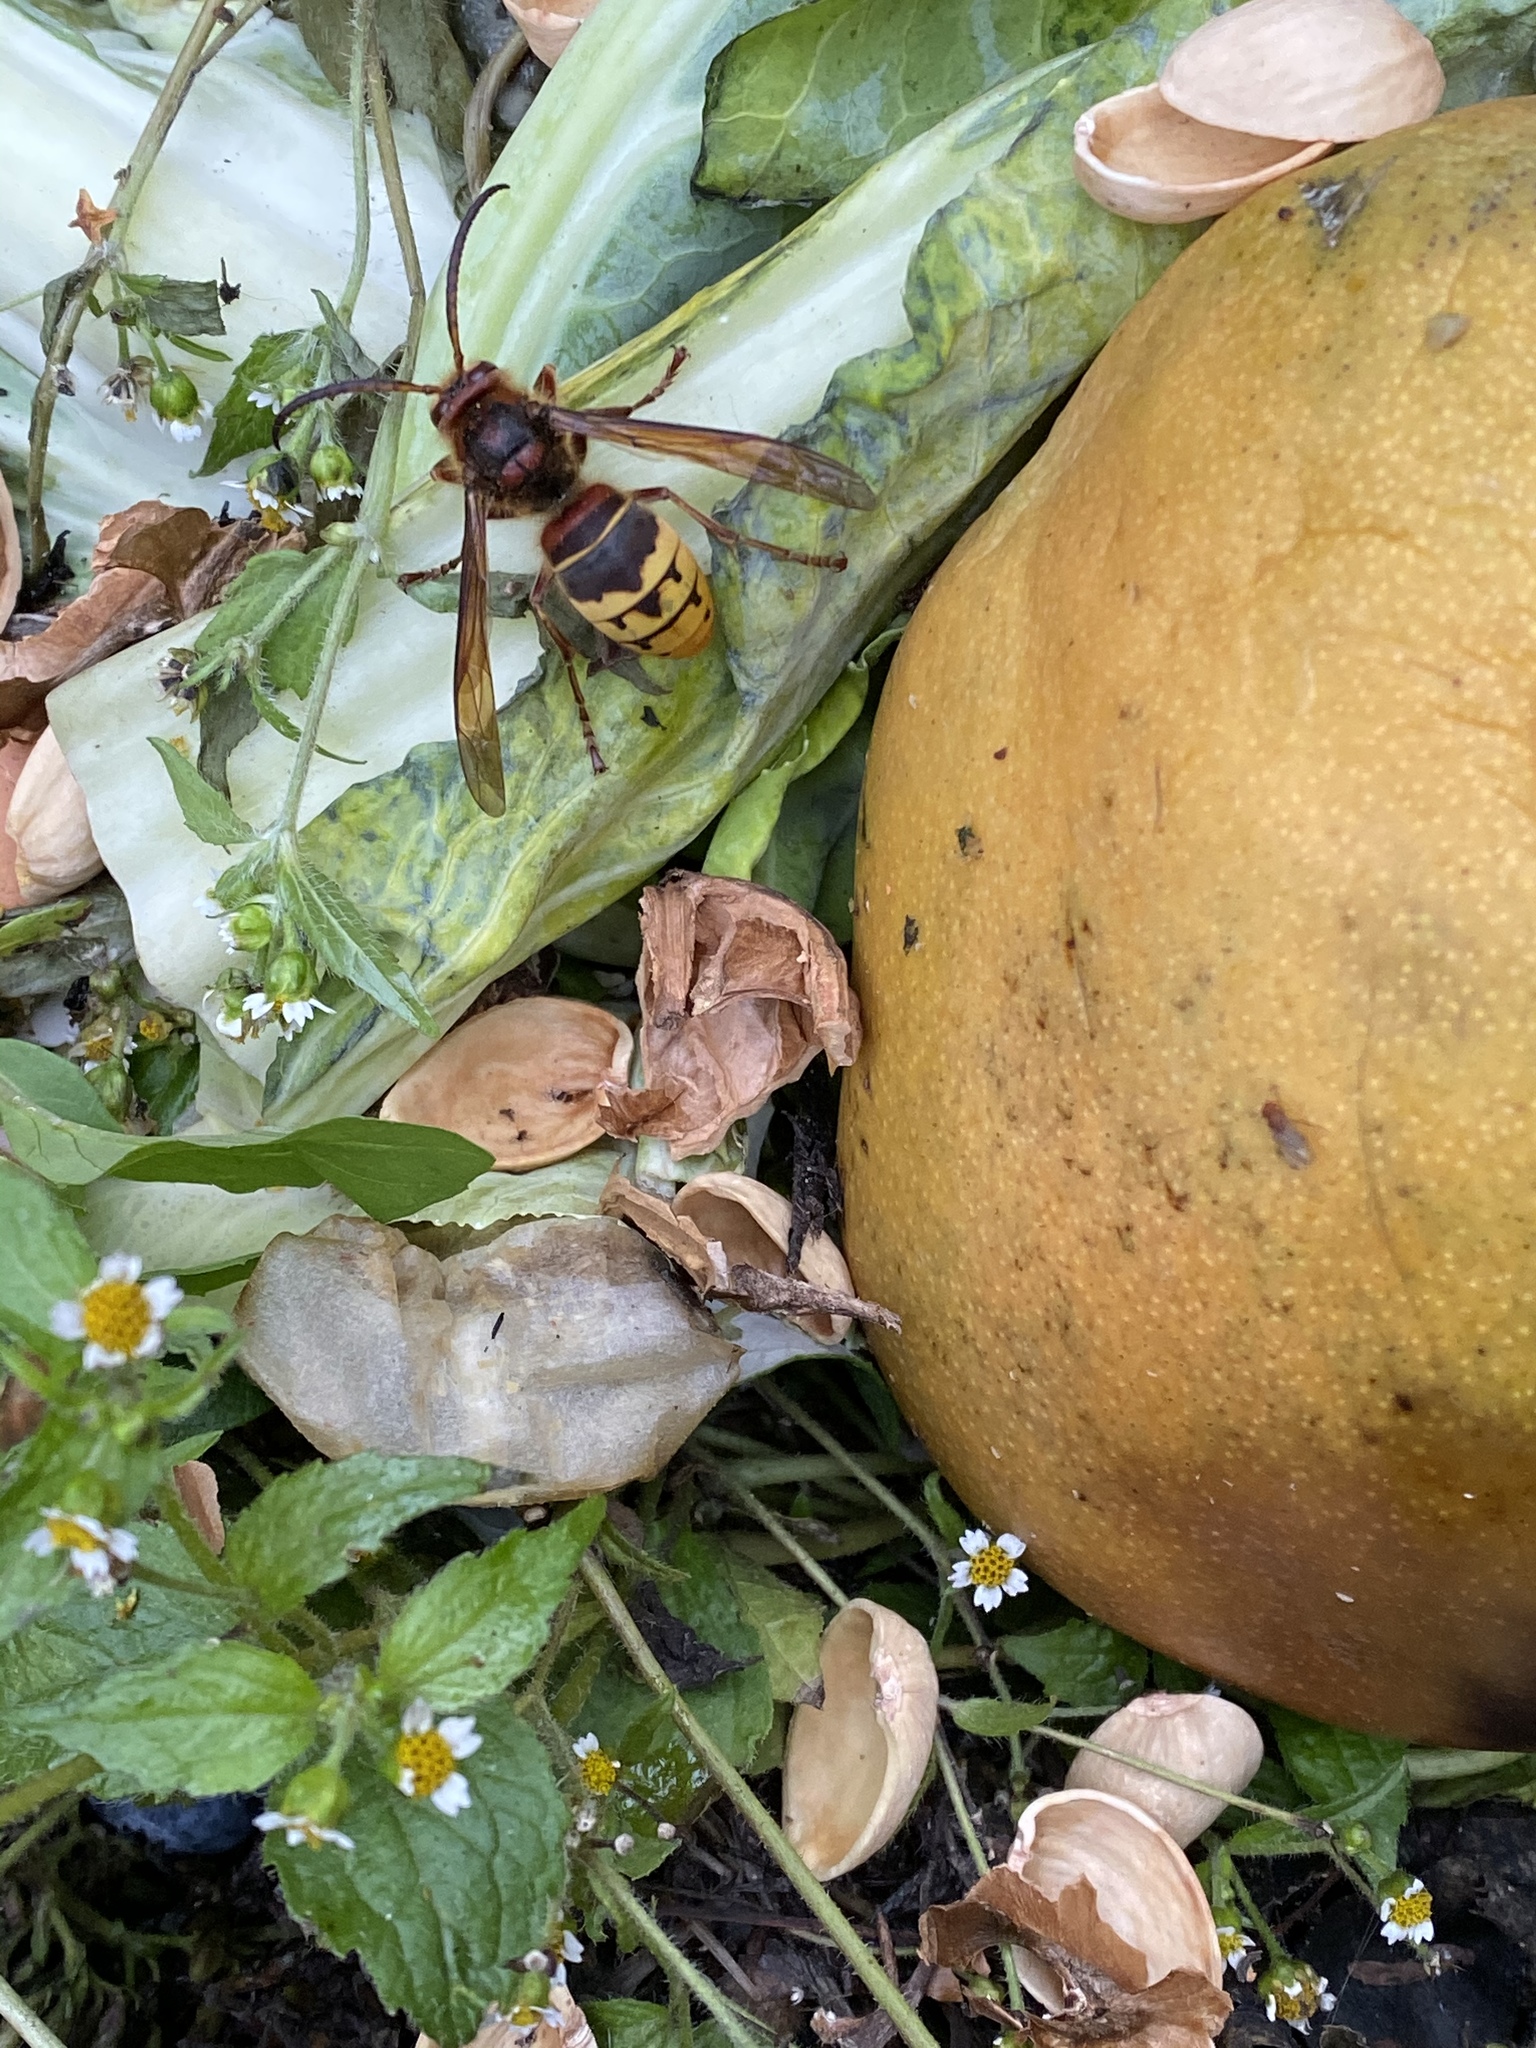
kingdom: Animalia
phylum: Arthropoda
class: Insecta
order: Hymenoptera
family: Vespidae
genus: Vespa
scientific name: Vespa crabro
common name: Hornet
